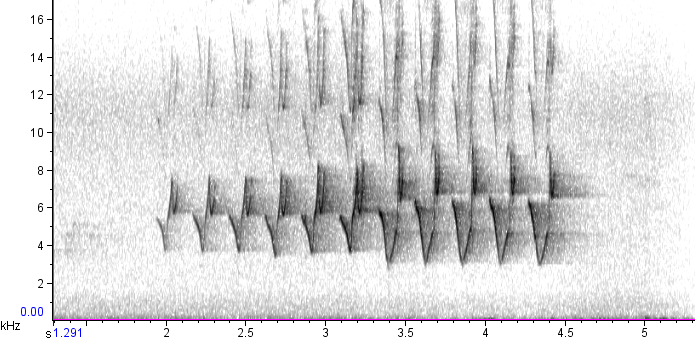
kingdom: Animalia
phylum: Chordata
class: Aves
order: Passeriformes
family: Parulidae
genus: Protonotaria
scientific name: Protonotaria citrea
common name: Prothonotary warbler
